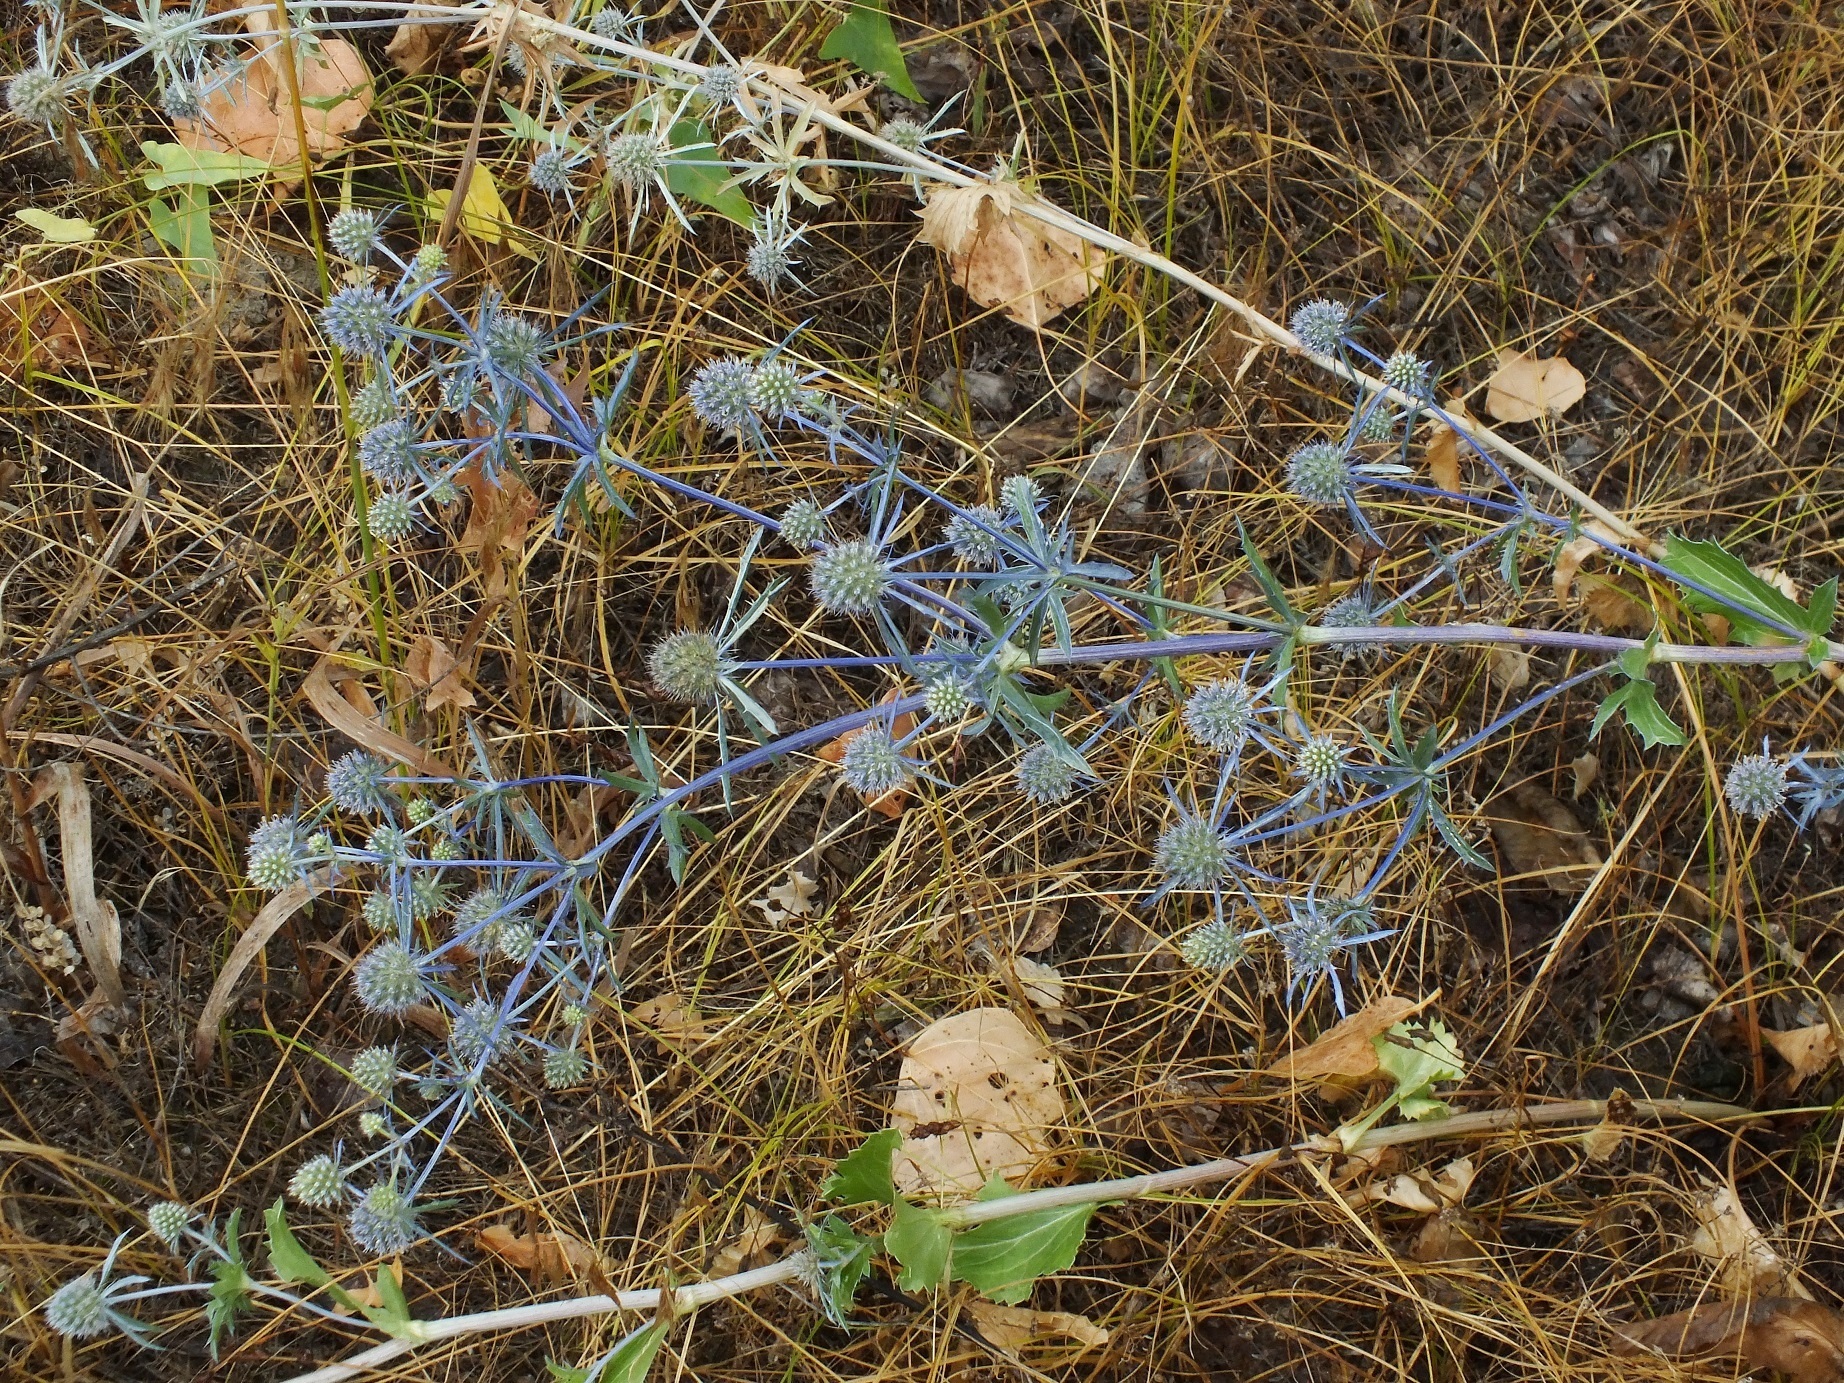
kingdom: Plantae
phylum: Tracheophyta
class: Magnoliopsida
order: Apiales
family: Apiaceae
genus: Eryngium
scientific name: Eryngium planum
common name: Blue eryngo
